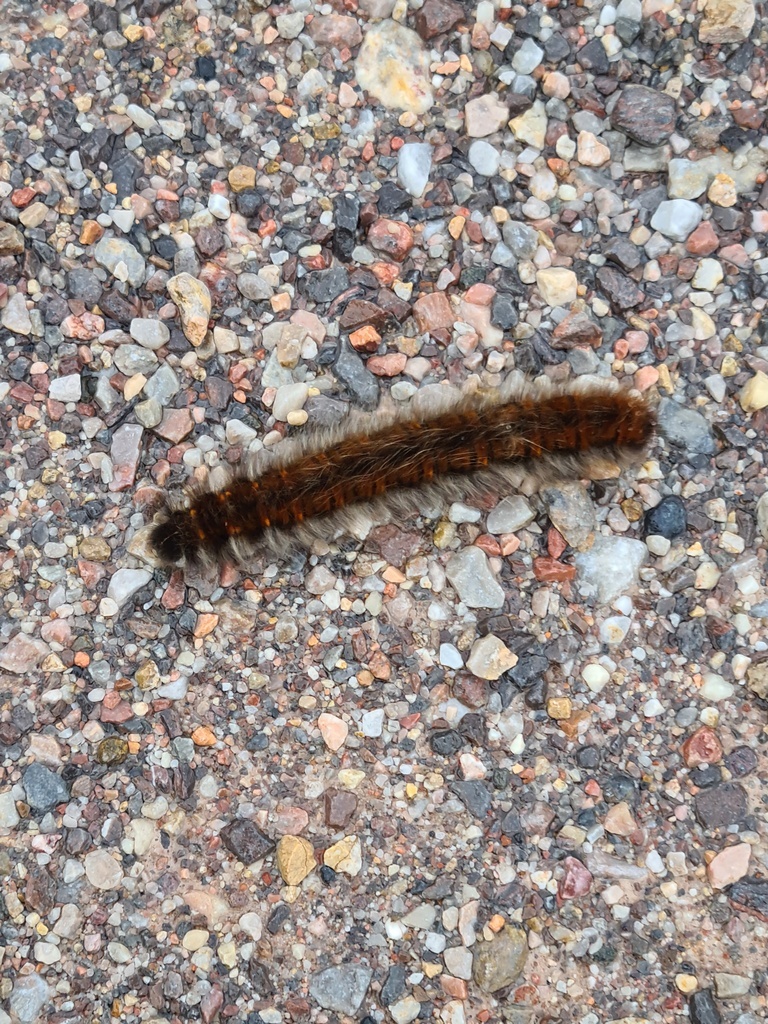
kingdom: Animalia
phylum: Arthropoda
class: Insecta
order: Lepidoptera
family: Lasiocampidae
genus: Macrothylacia
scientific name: Macrothylacia rubi
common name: Fox moth
